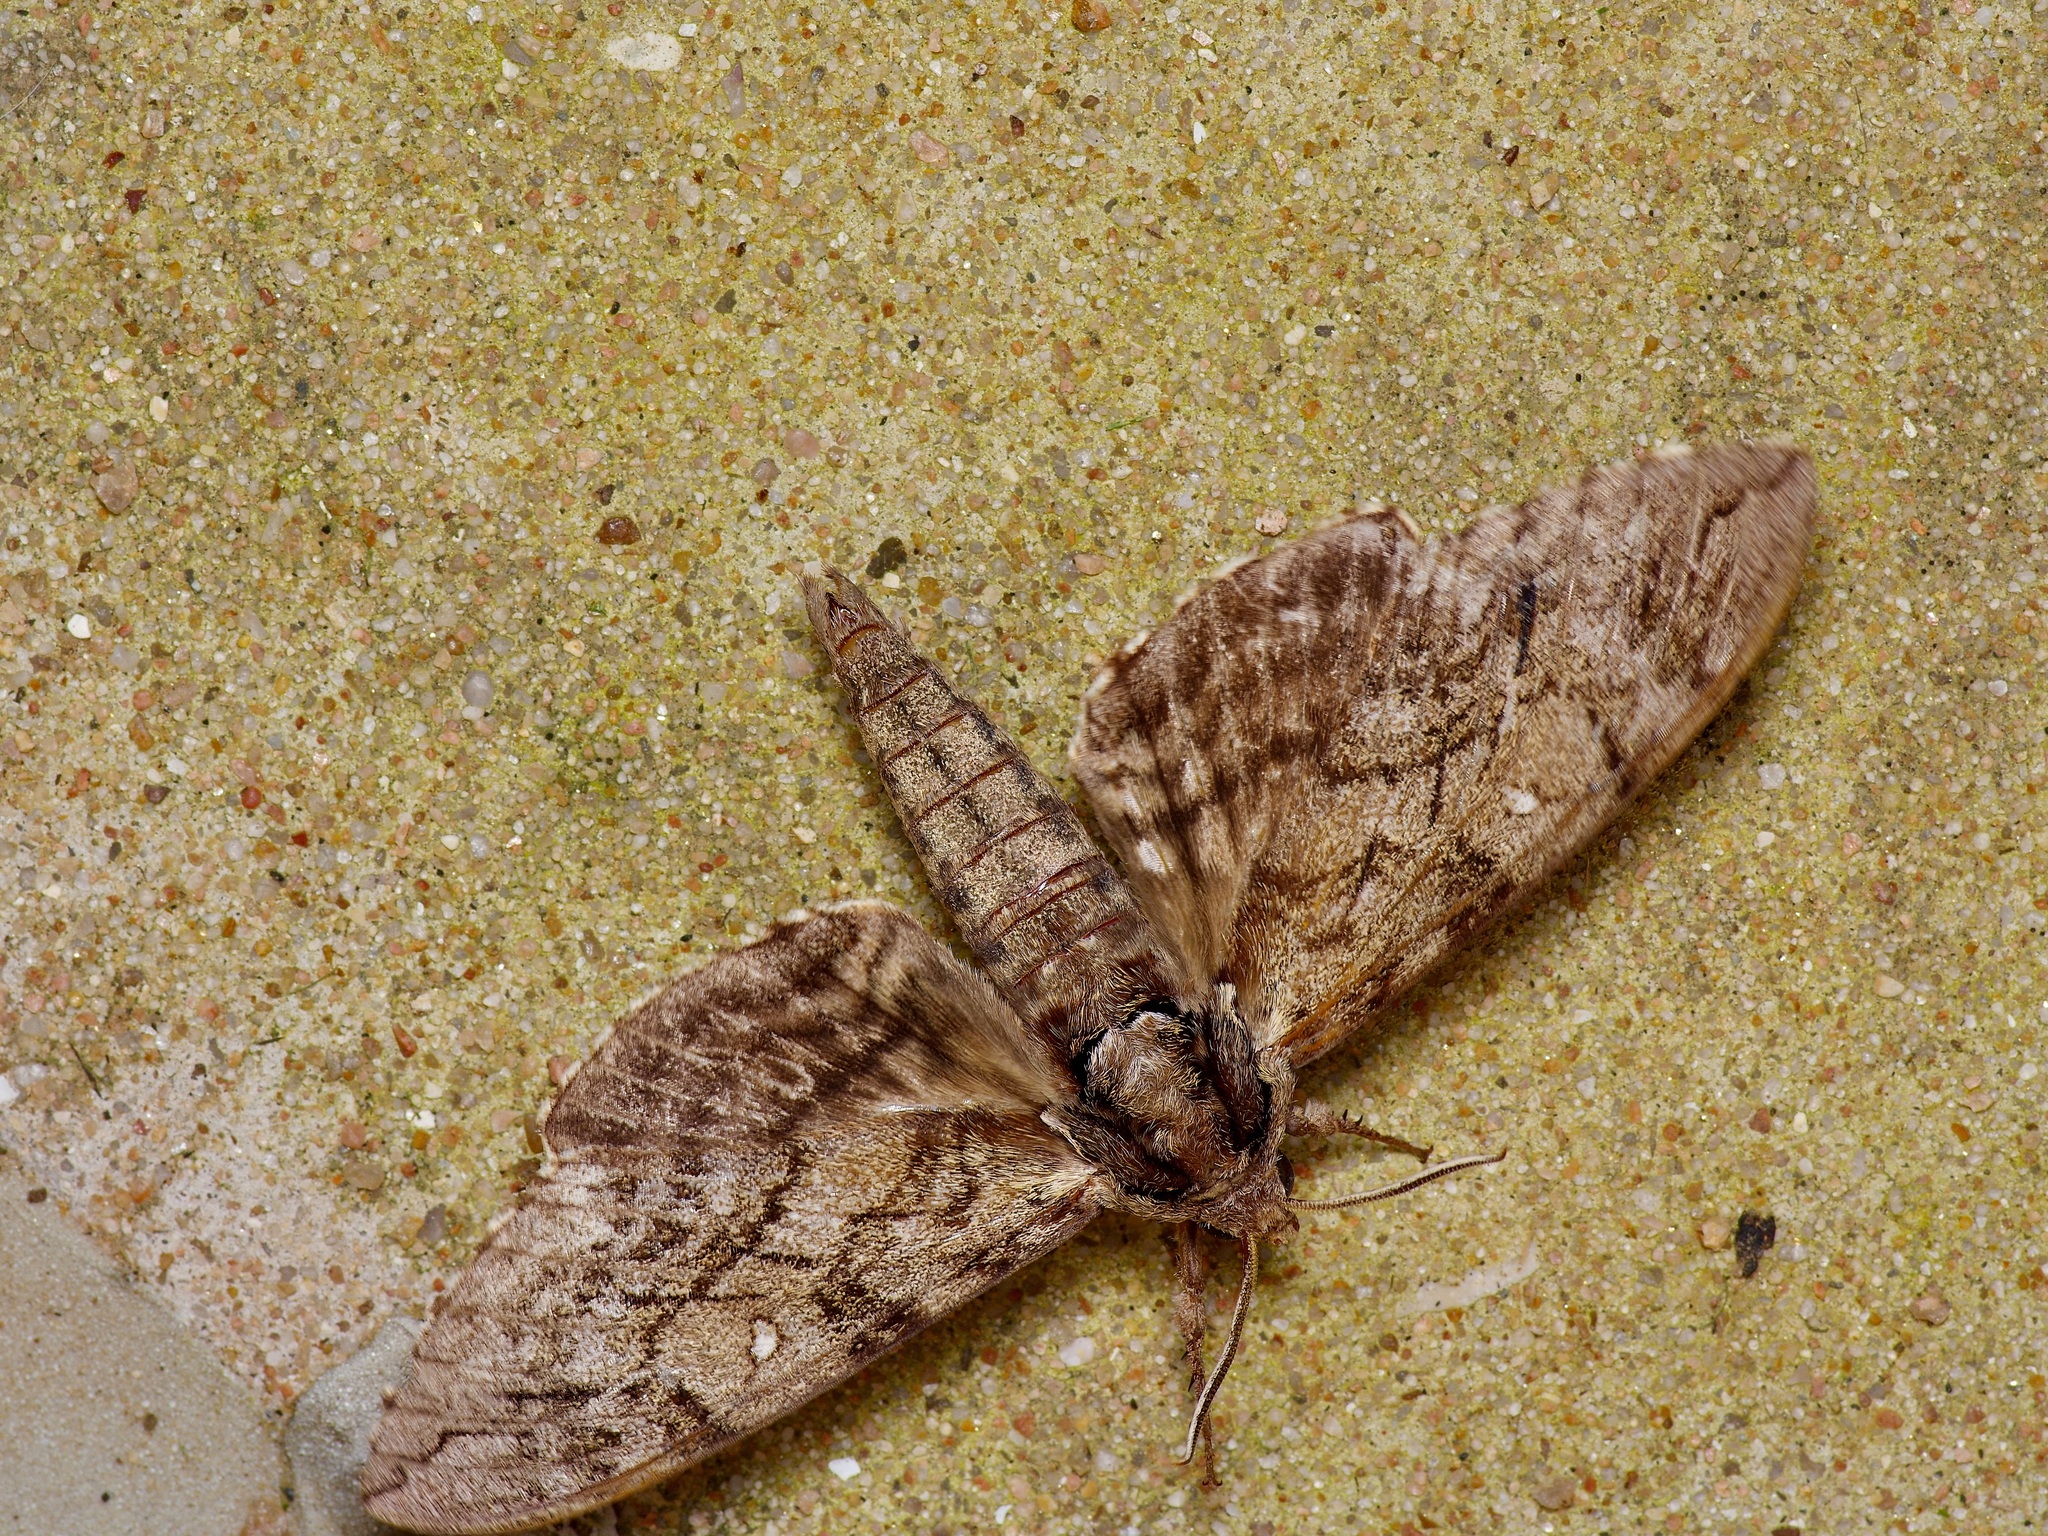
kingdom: Animalia
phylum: Arthropoda
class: Insecta
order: Lepidoptera
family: Sphingidae
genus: Ceratomia
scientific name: Ceratomia undulosa
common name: Waved sphinx
